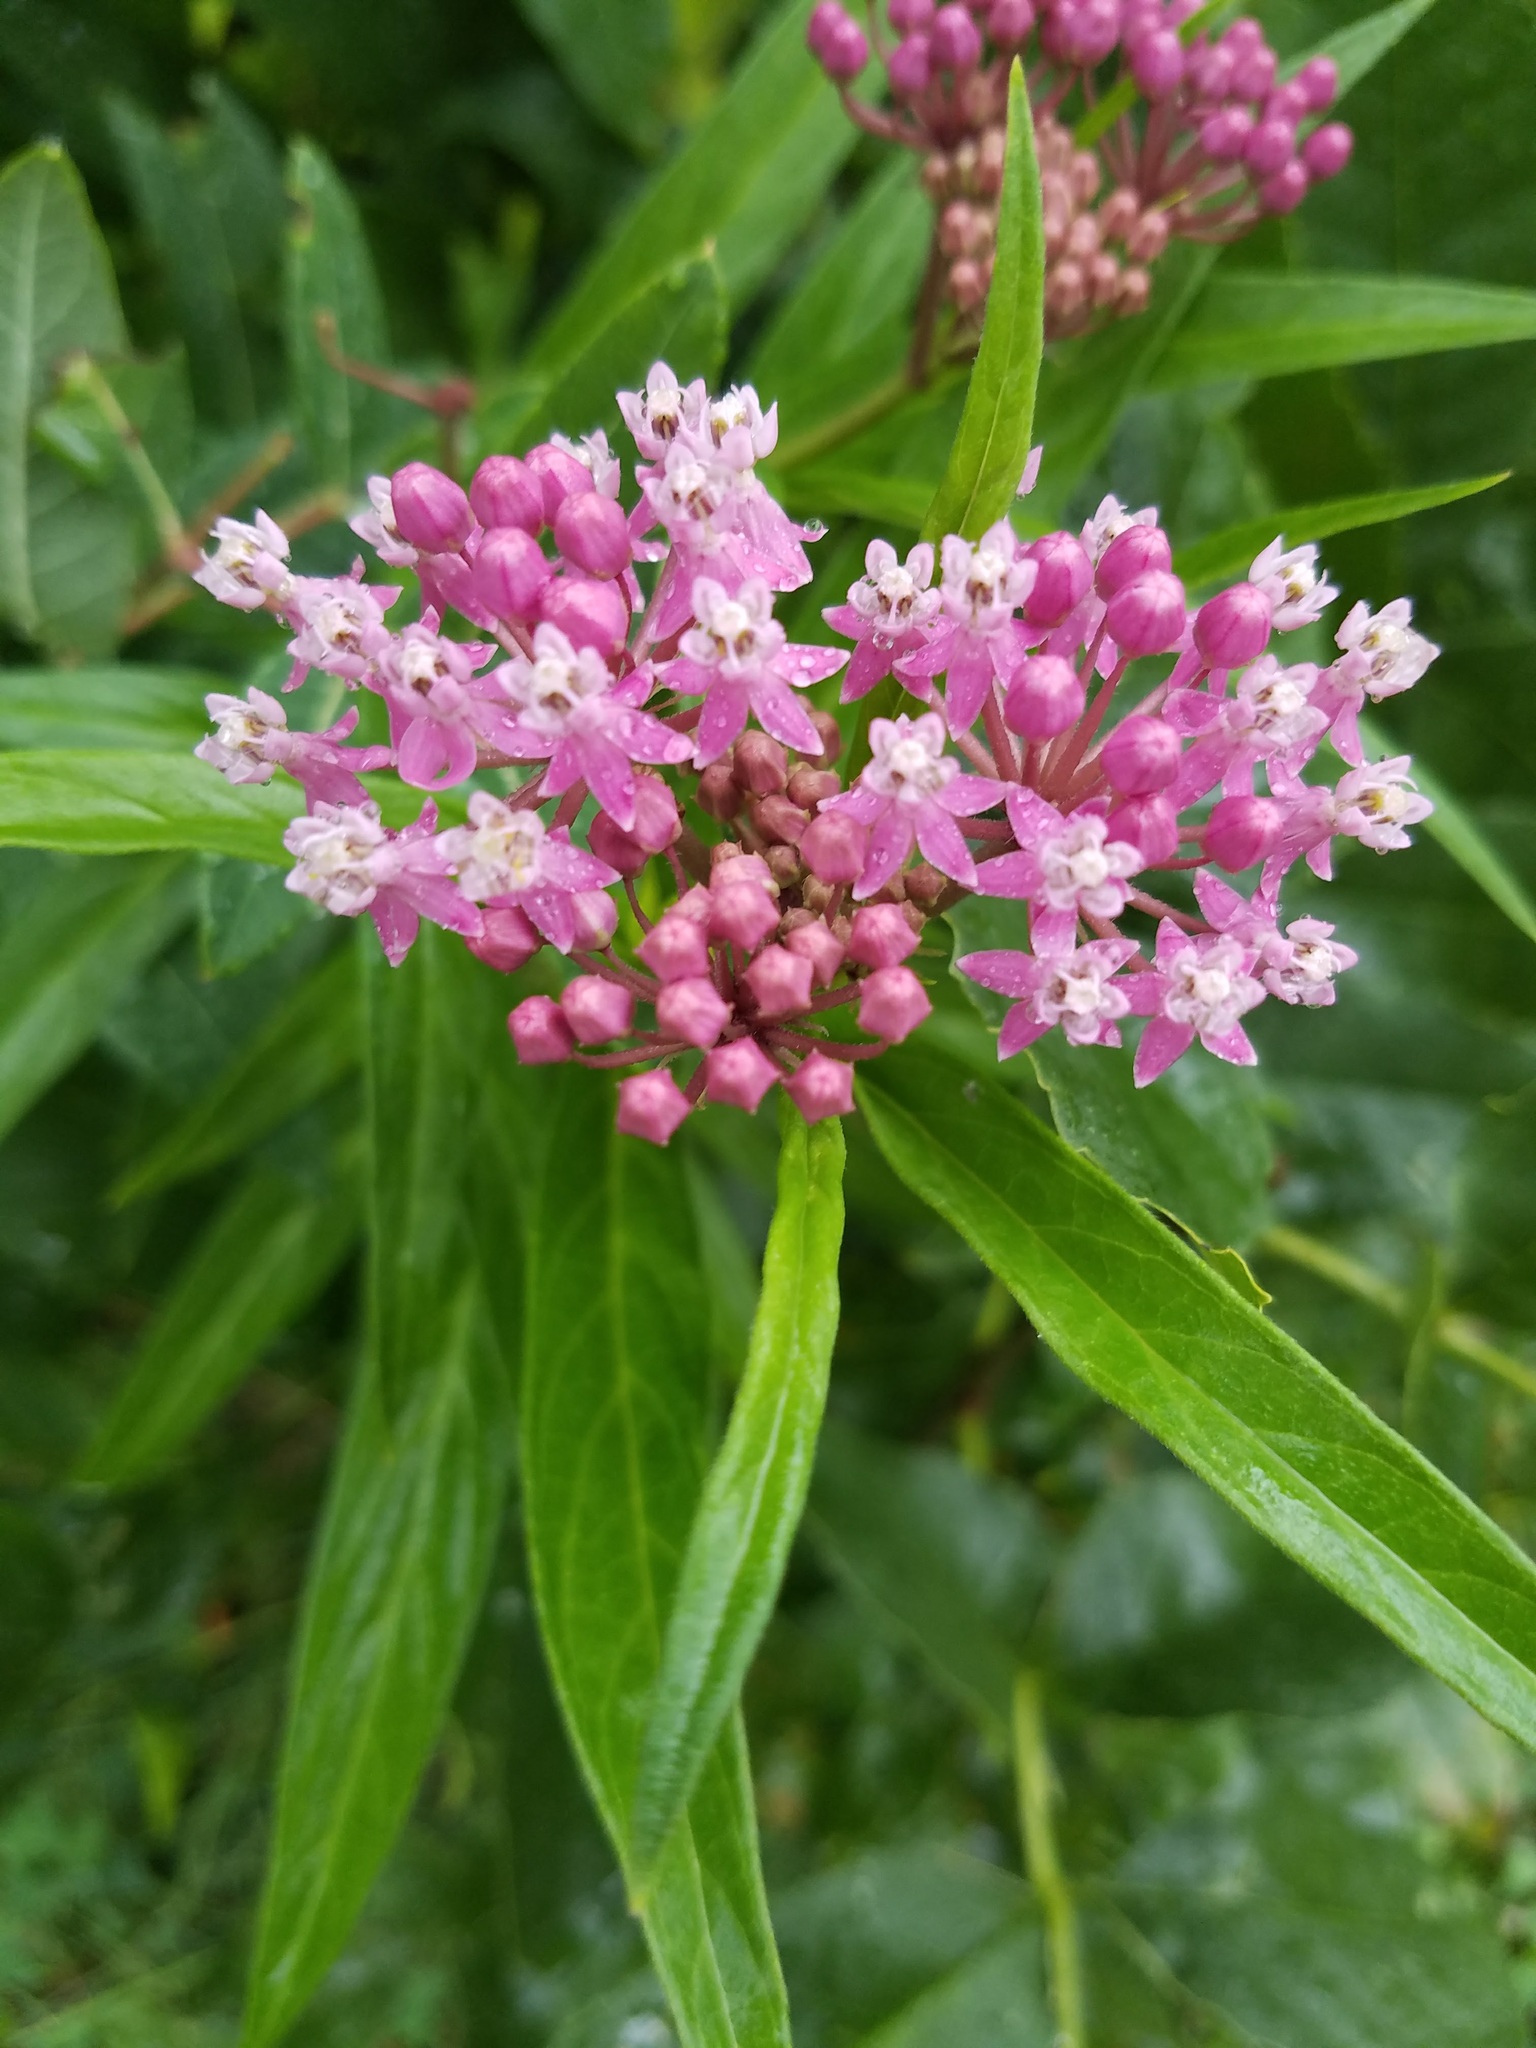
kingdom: Plantae
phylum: Tracheophyta
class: Magnoliopsida
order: Gentianales
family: Apocynaceae
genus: Asclepias
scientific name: Asclepias incarnata
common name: Swamp milkweed
